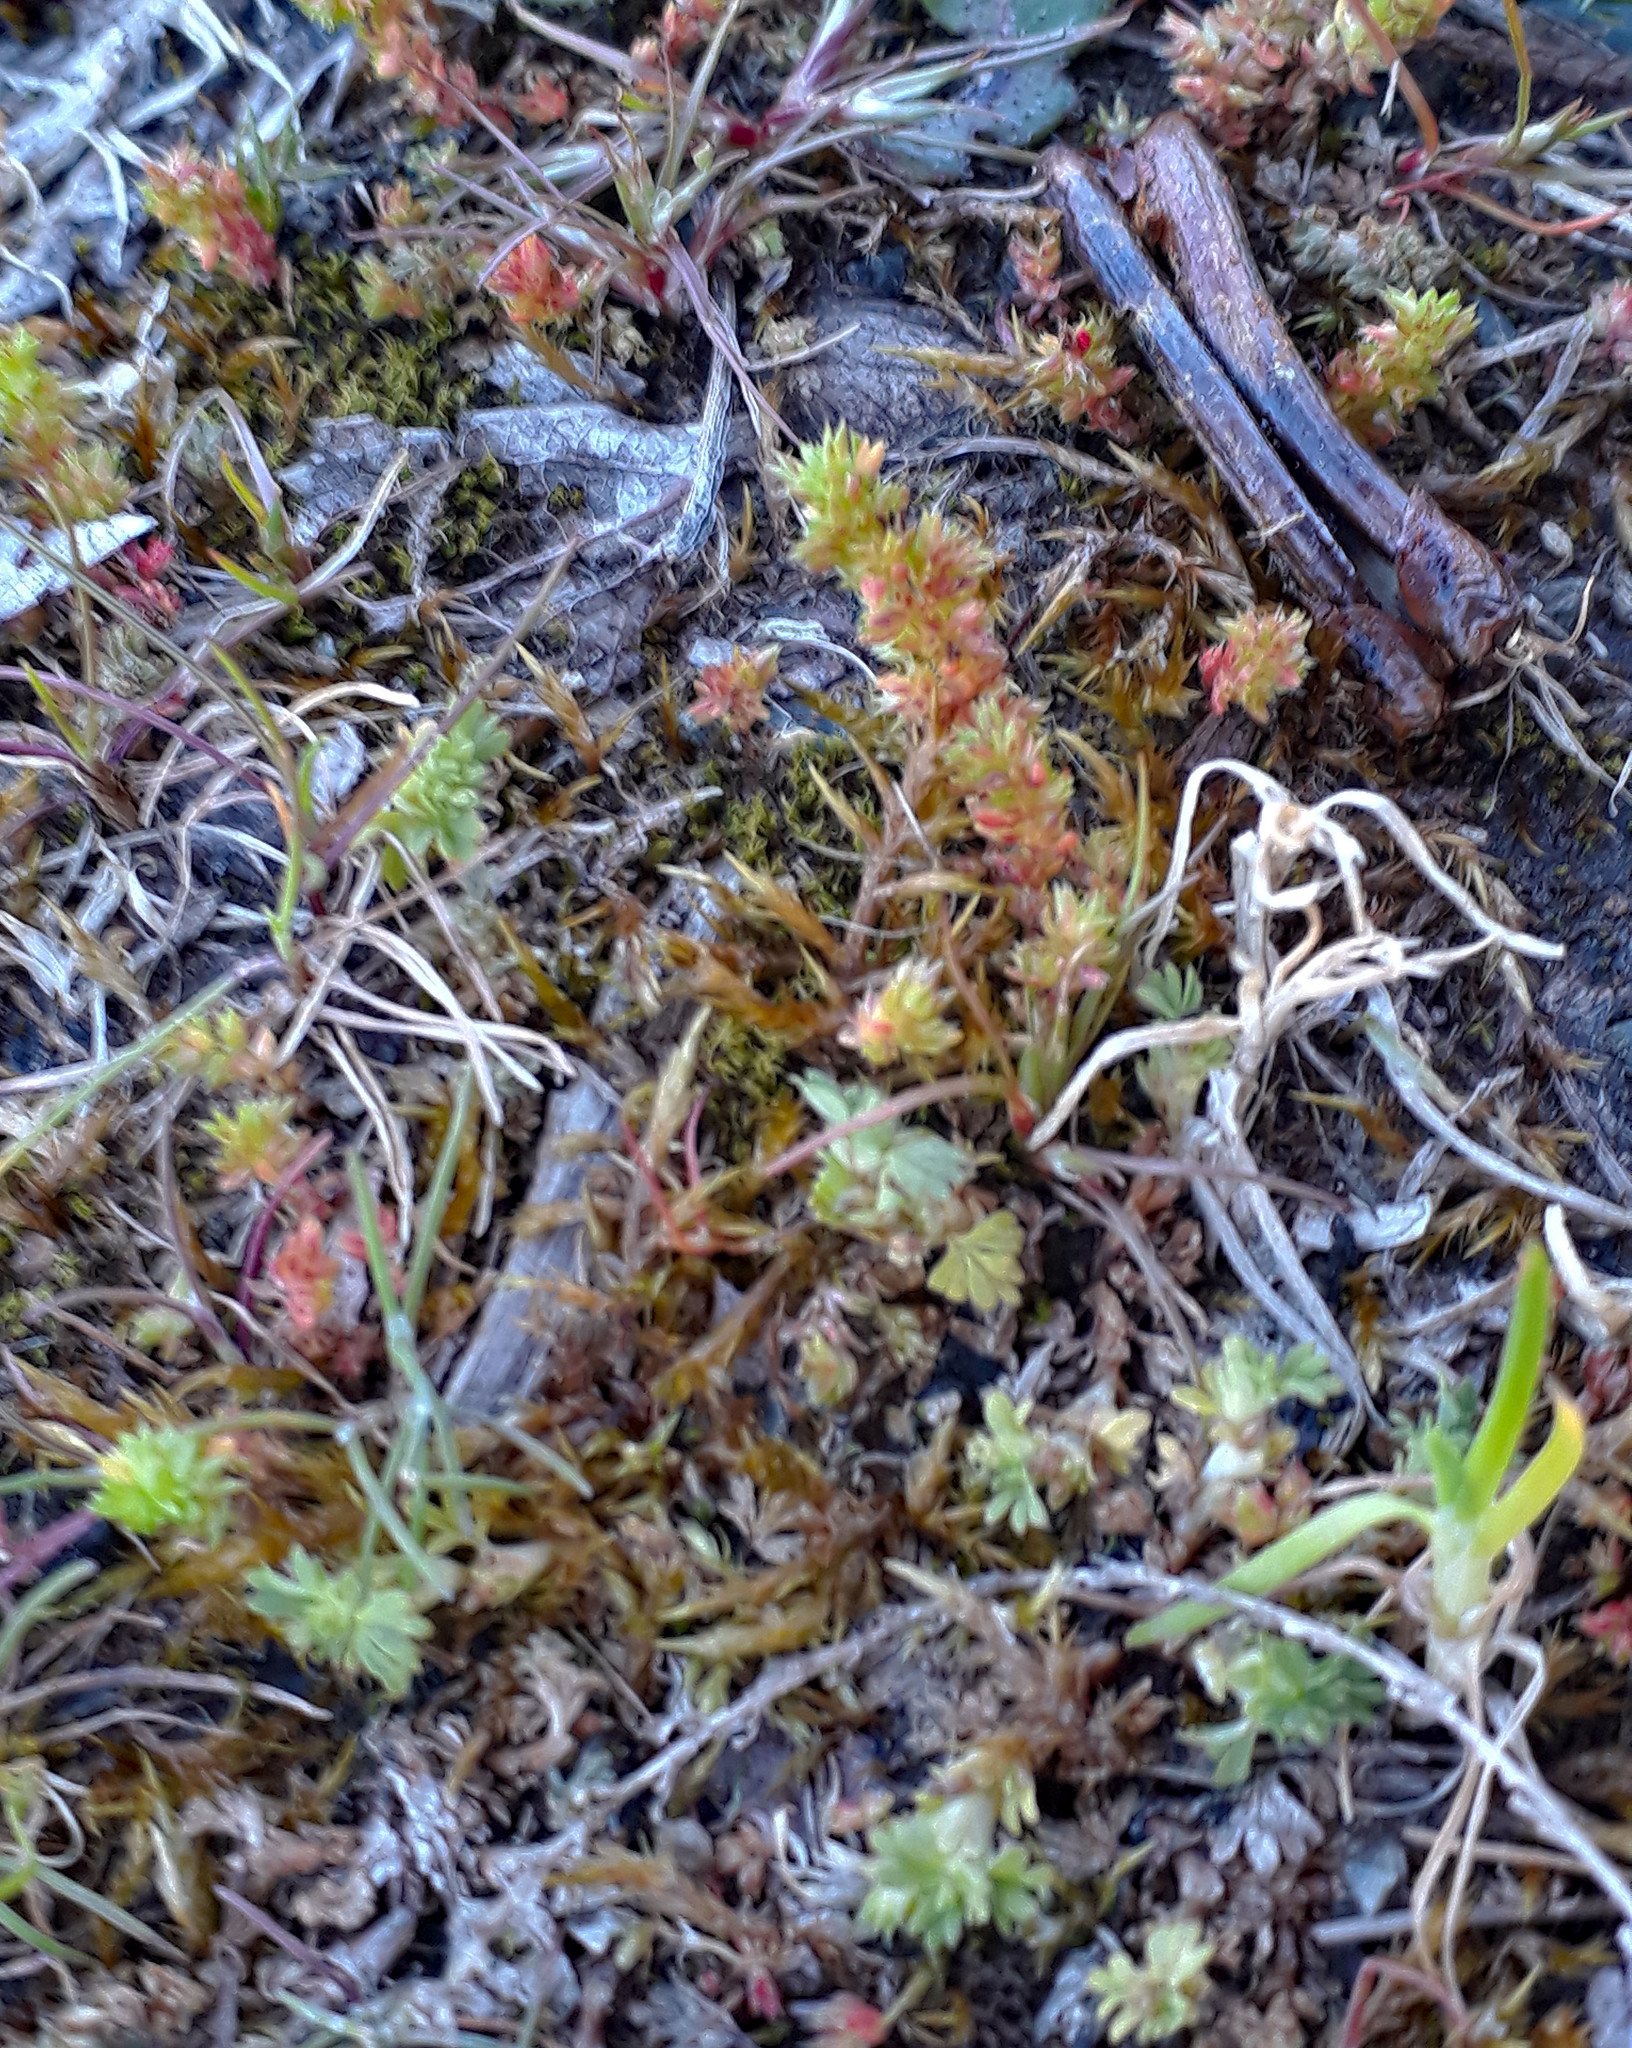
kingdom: Plantae
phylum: Tracheophyta
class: Magnoliopsida
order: Saxifragales
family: Crassulaceae
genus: Crassula
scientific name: Crassula alata
